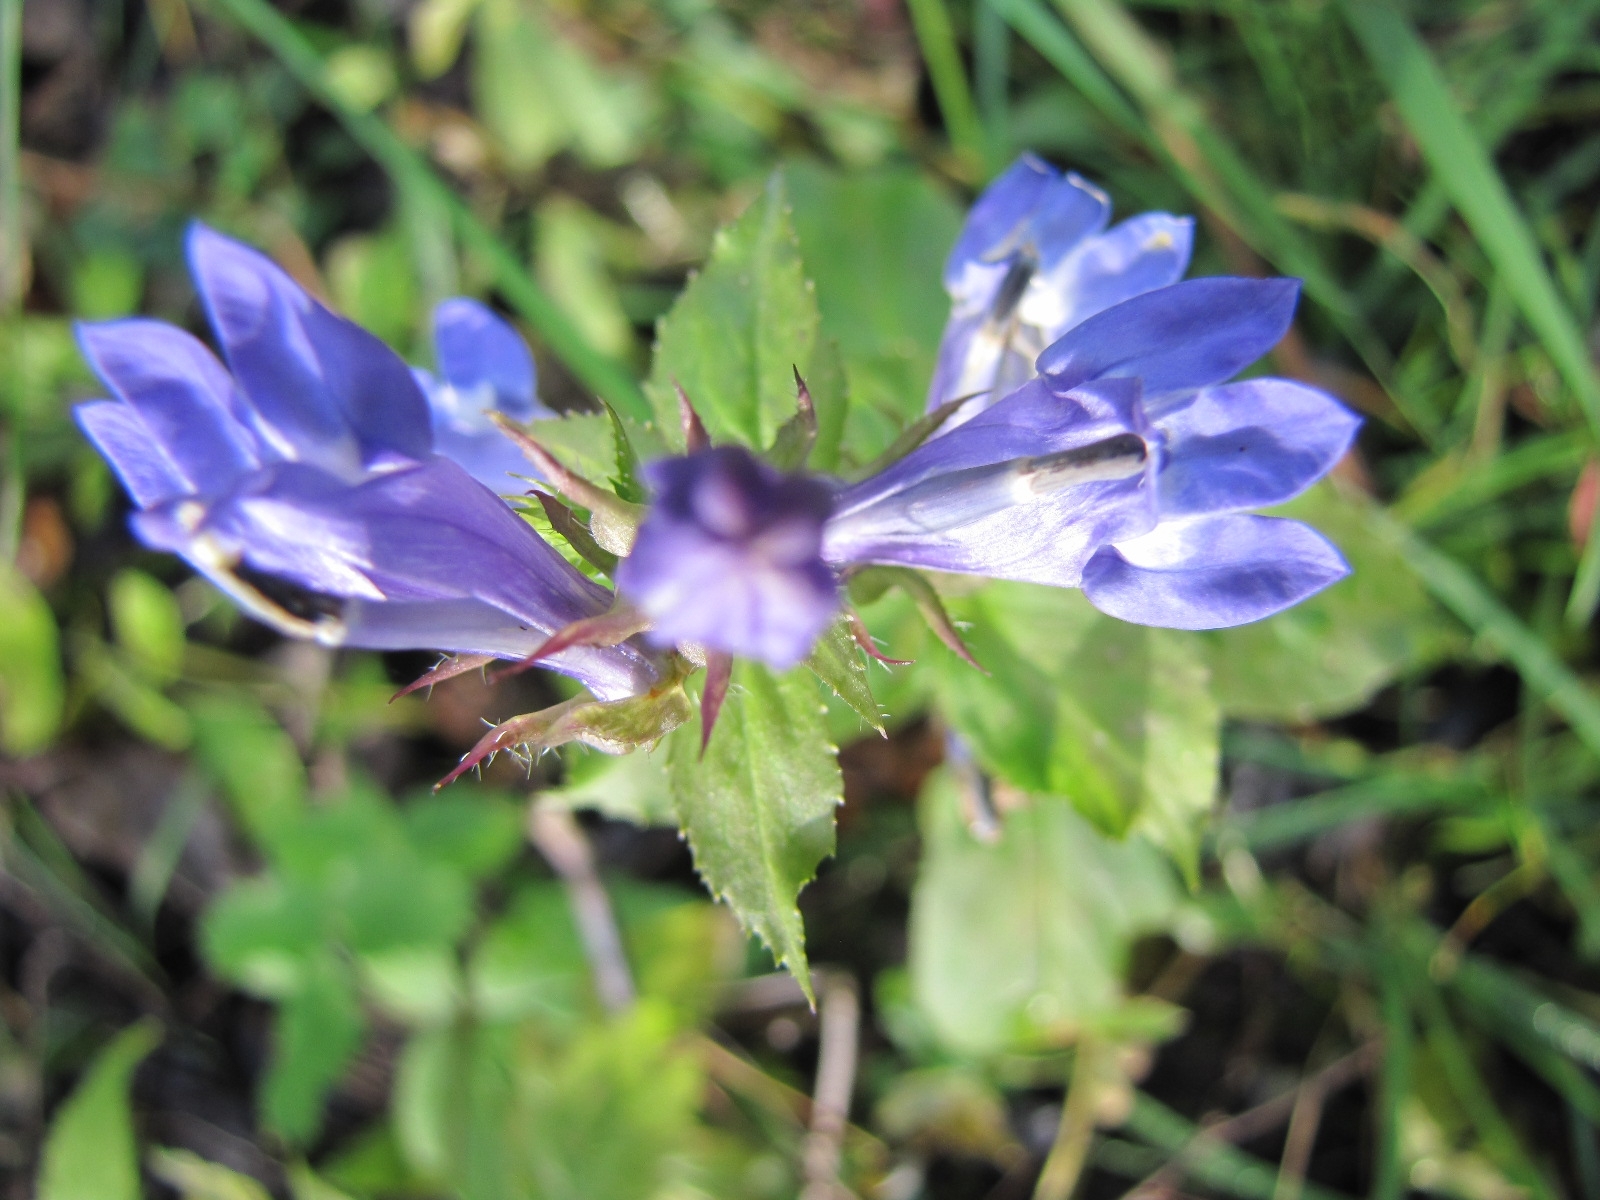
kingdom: Plantae
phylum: Tracheophyta
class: Magnoliopsida
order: Asterales
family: Campanulaceae
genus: Lobelia
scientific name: Lobelia siphilitica
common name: Great lobelia
